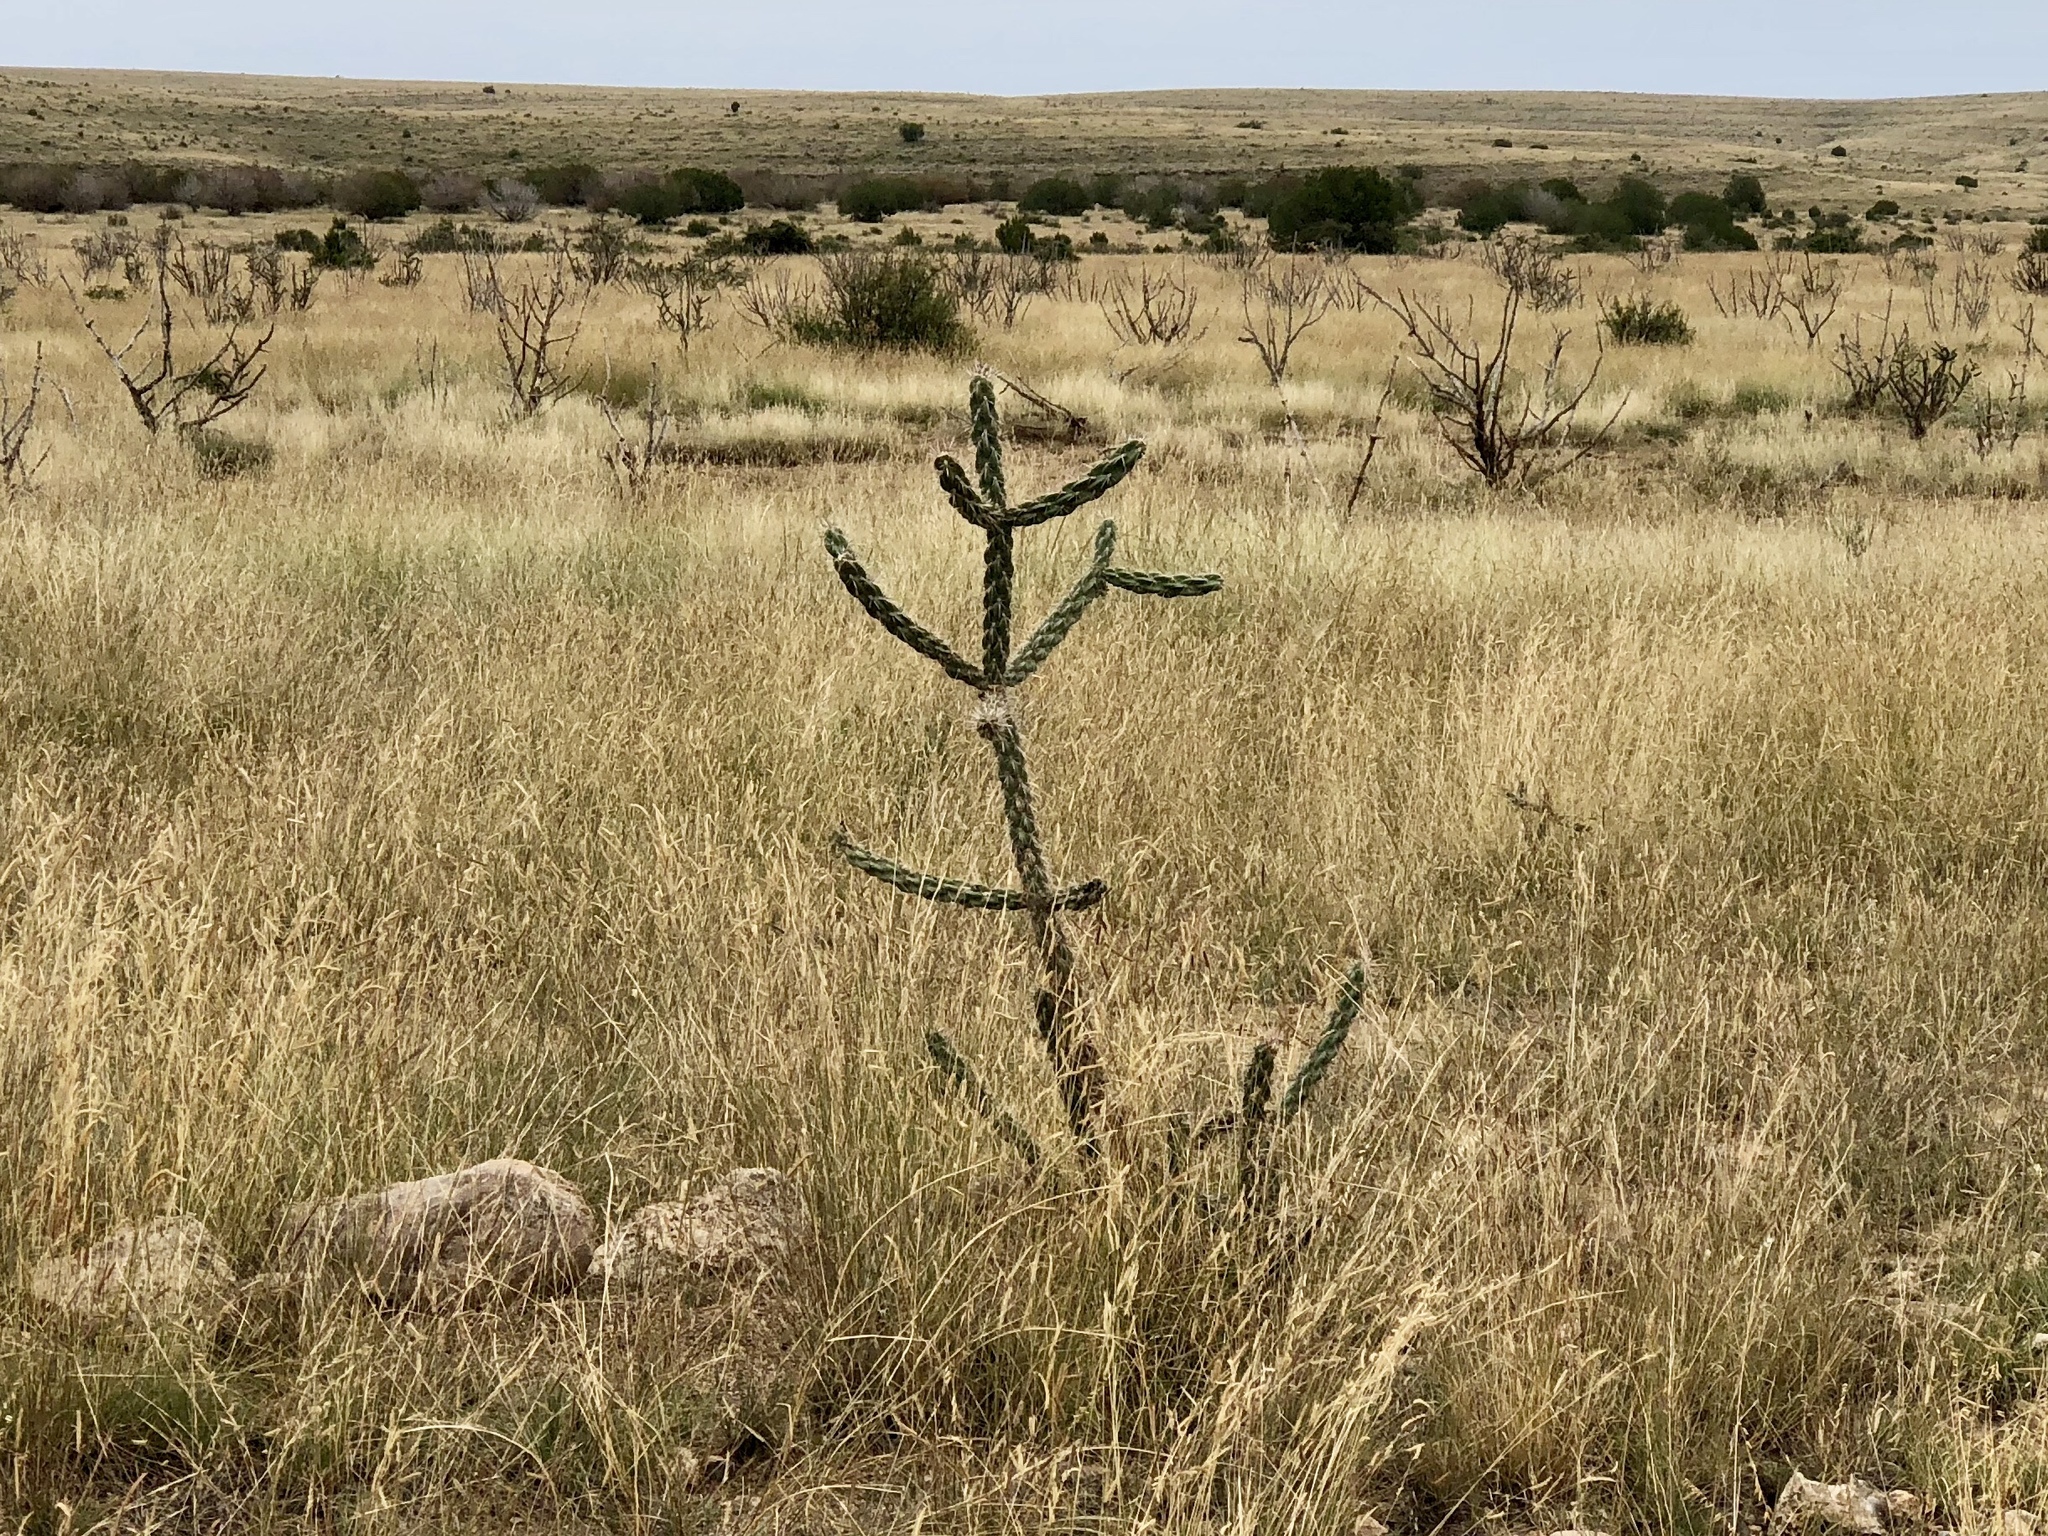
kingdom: Plantae
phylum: Tracheophyta
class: Magnoliopsida
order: Caryophyllales
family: Cactaceae
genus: Cylindropuntia
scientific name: Cylindropuntia imbricata
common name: Candelabrum cactus
